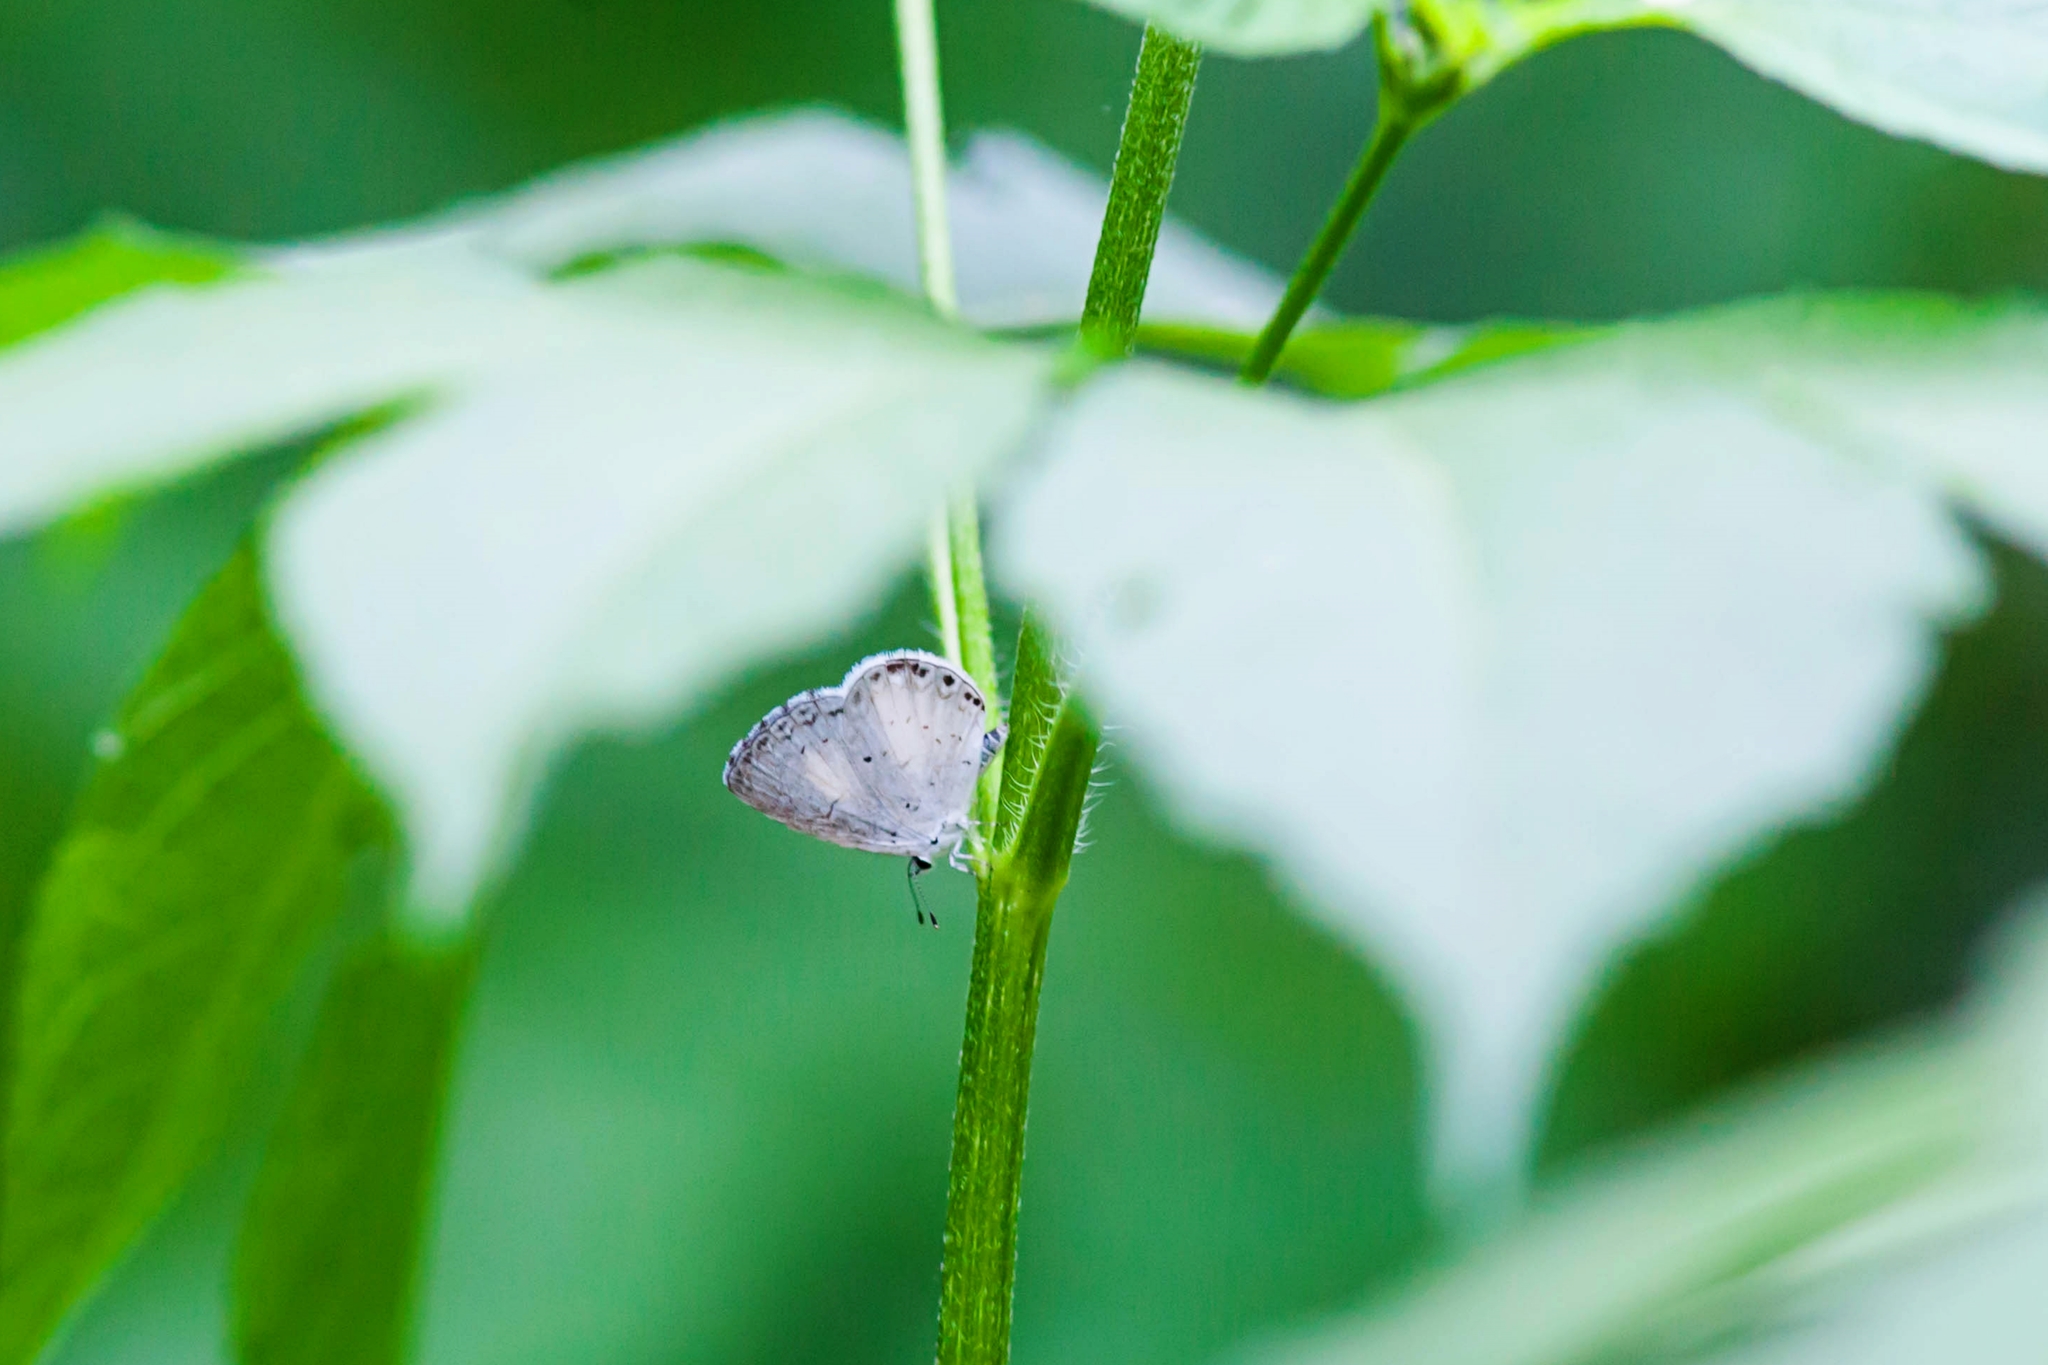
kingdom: Animalia
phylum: Arthropoda
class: Insecta
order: Lepidoptera
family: Lycaenidae
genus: Cyaniris
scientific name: Cyaniris neglecta
